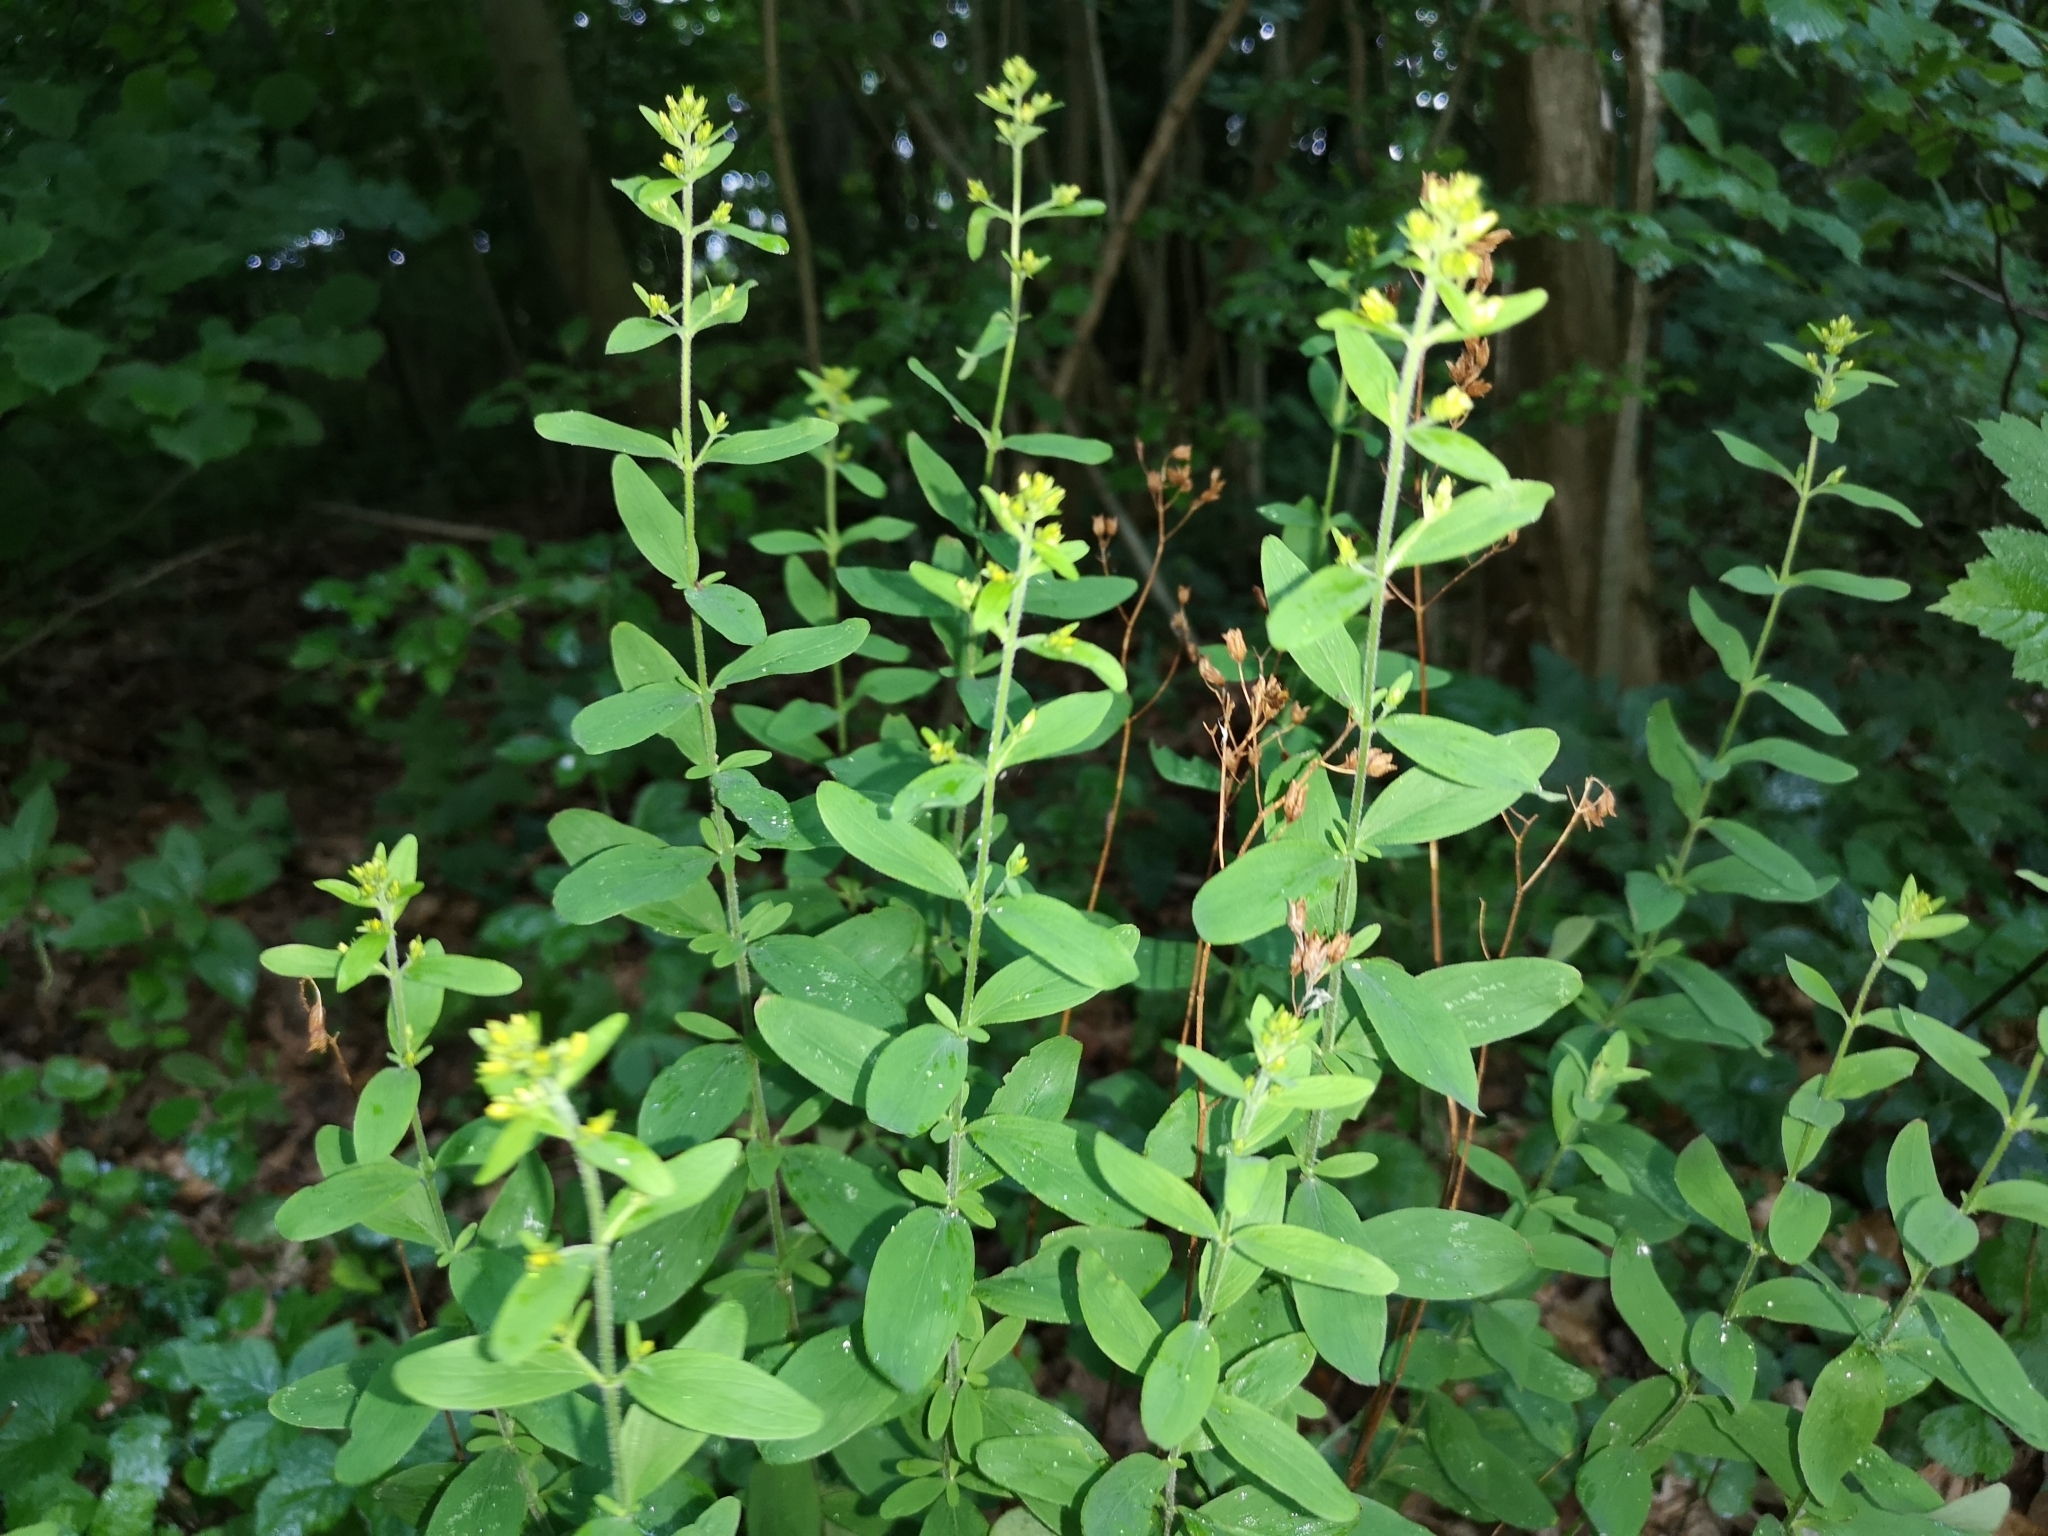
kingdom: Plantae
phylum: Tracheophyta
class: Magnoliopsida
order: Malpighiales
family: Hypericaceae
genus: Hypericum
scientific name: Hypericum hirsutum
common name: Hairy st. john's-wort
